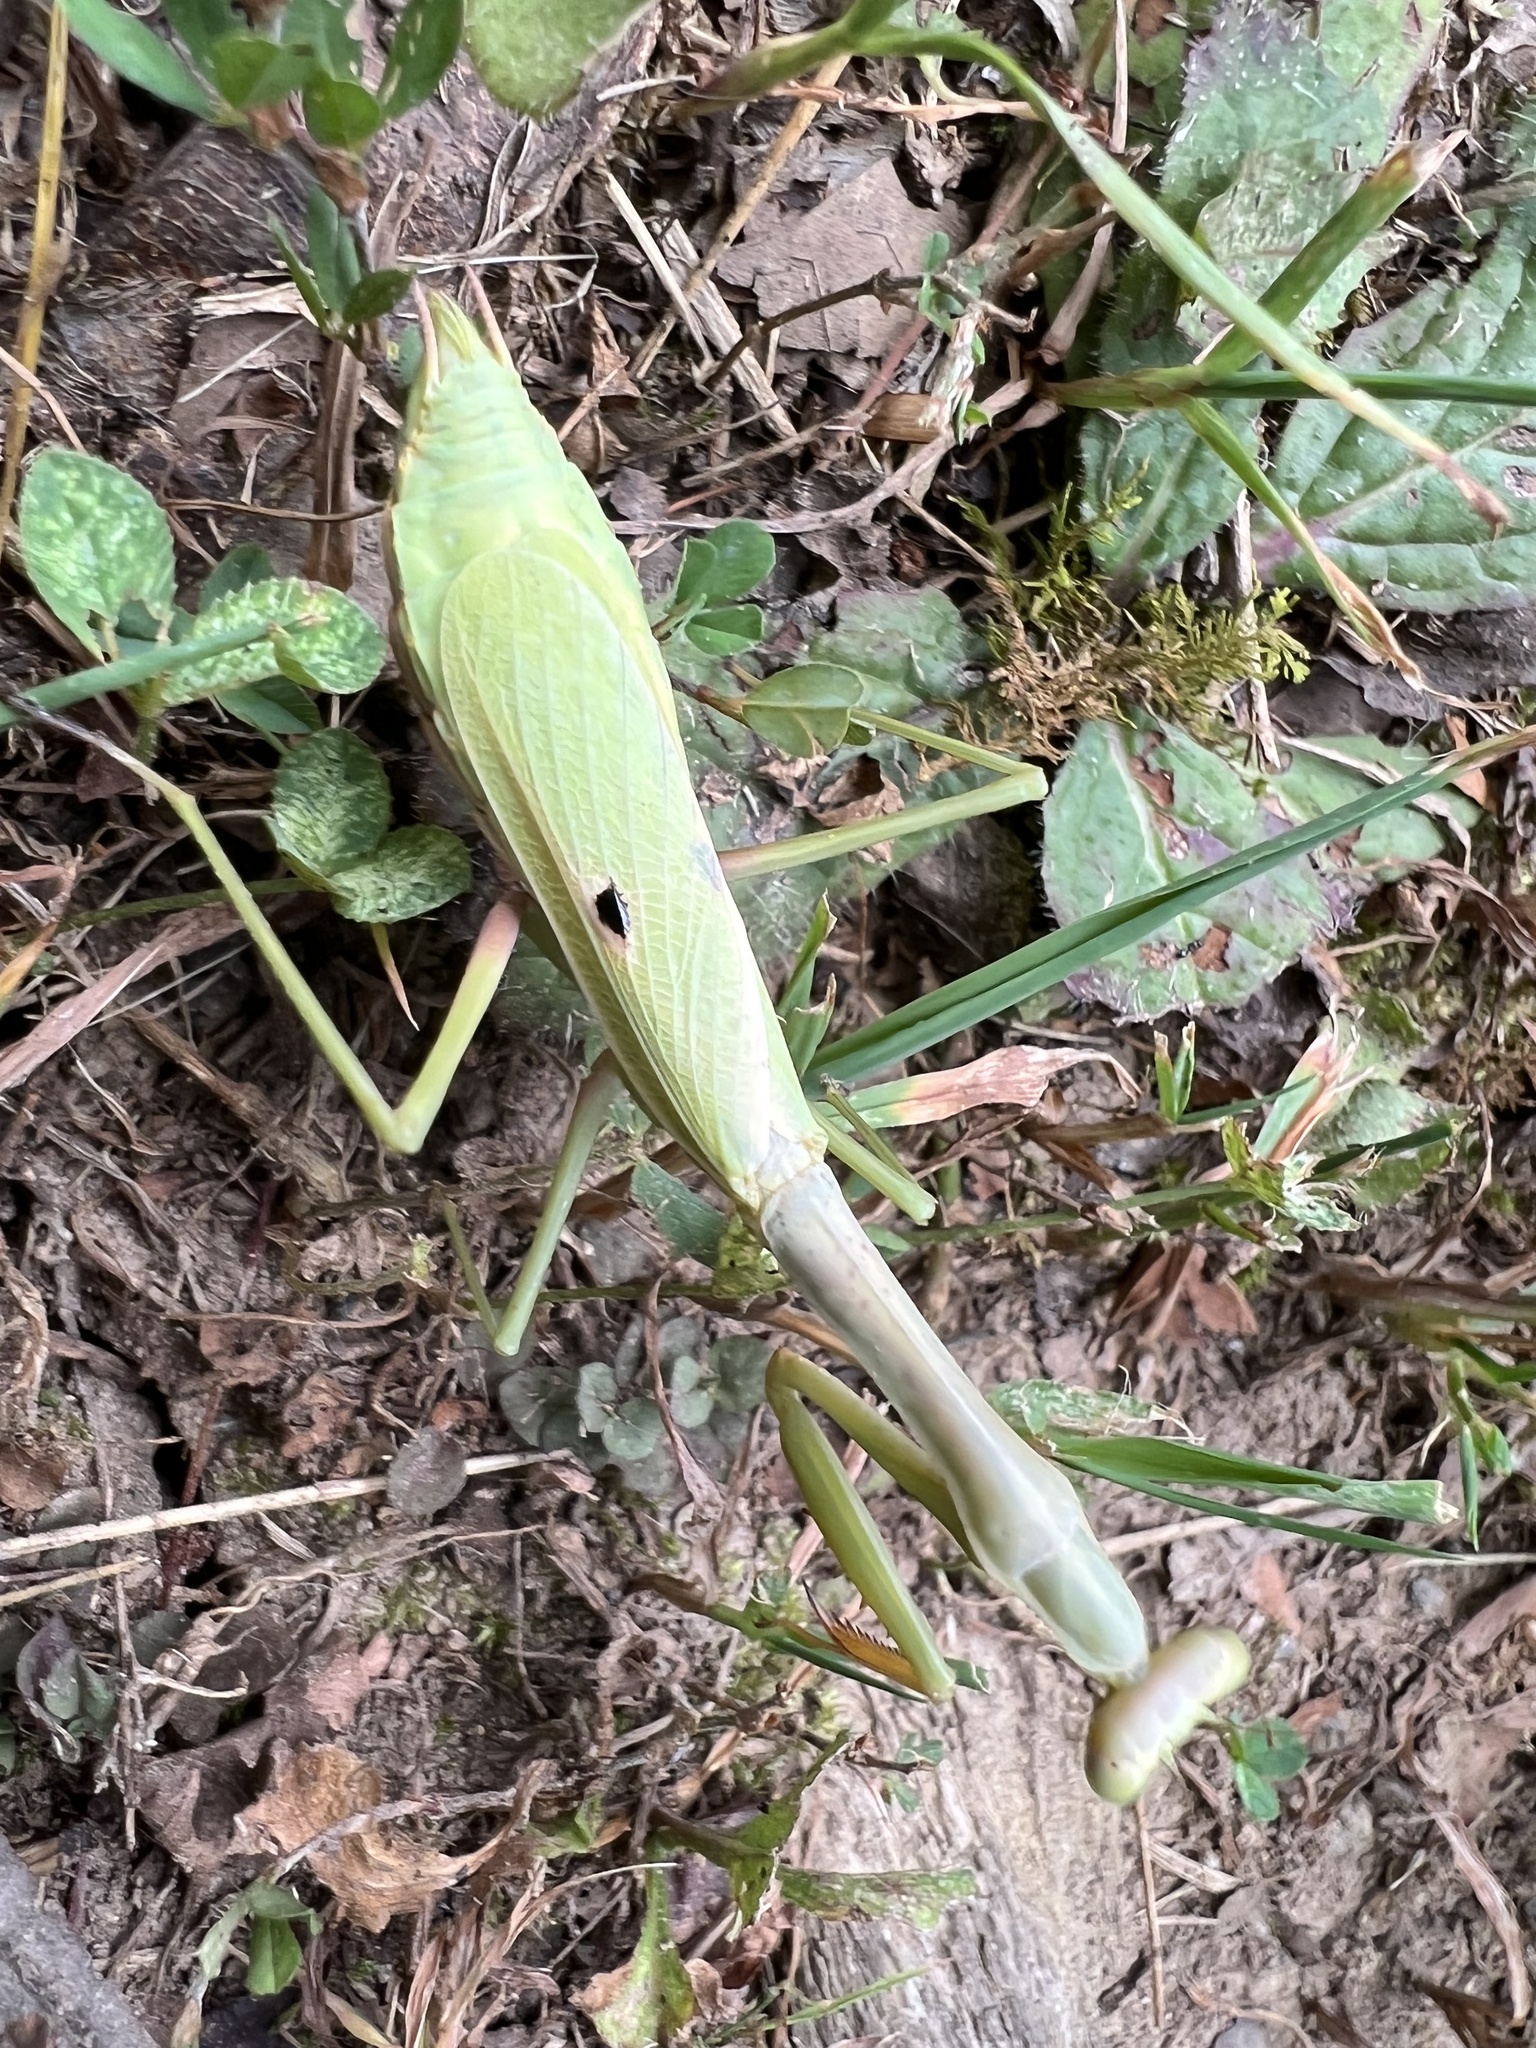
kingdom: Animalia
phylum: Arthropoda
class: Insecta
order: Mantodea
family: Mantidae
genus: Stagmomantis
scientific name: Stagmomantis carolina
